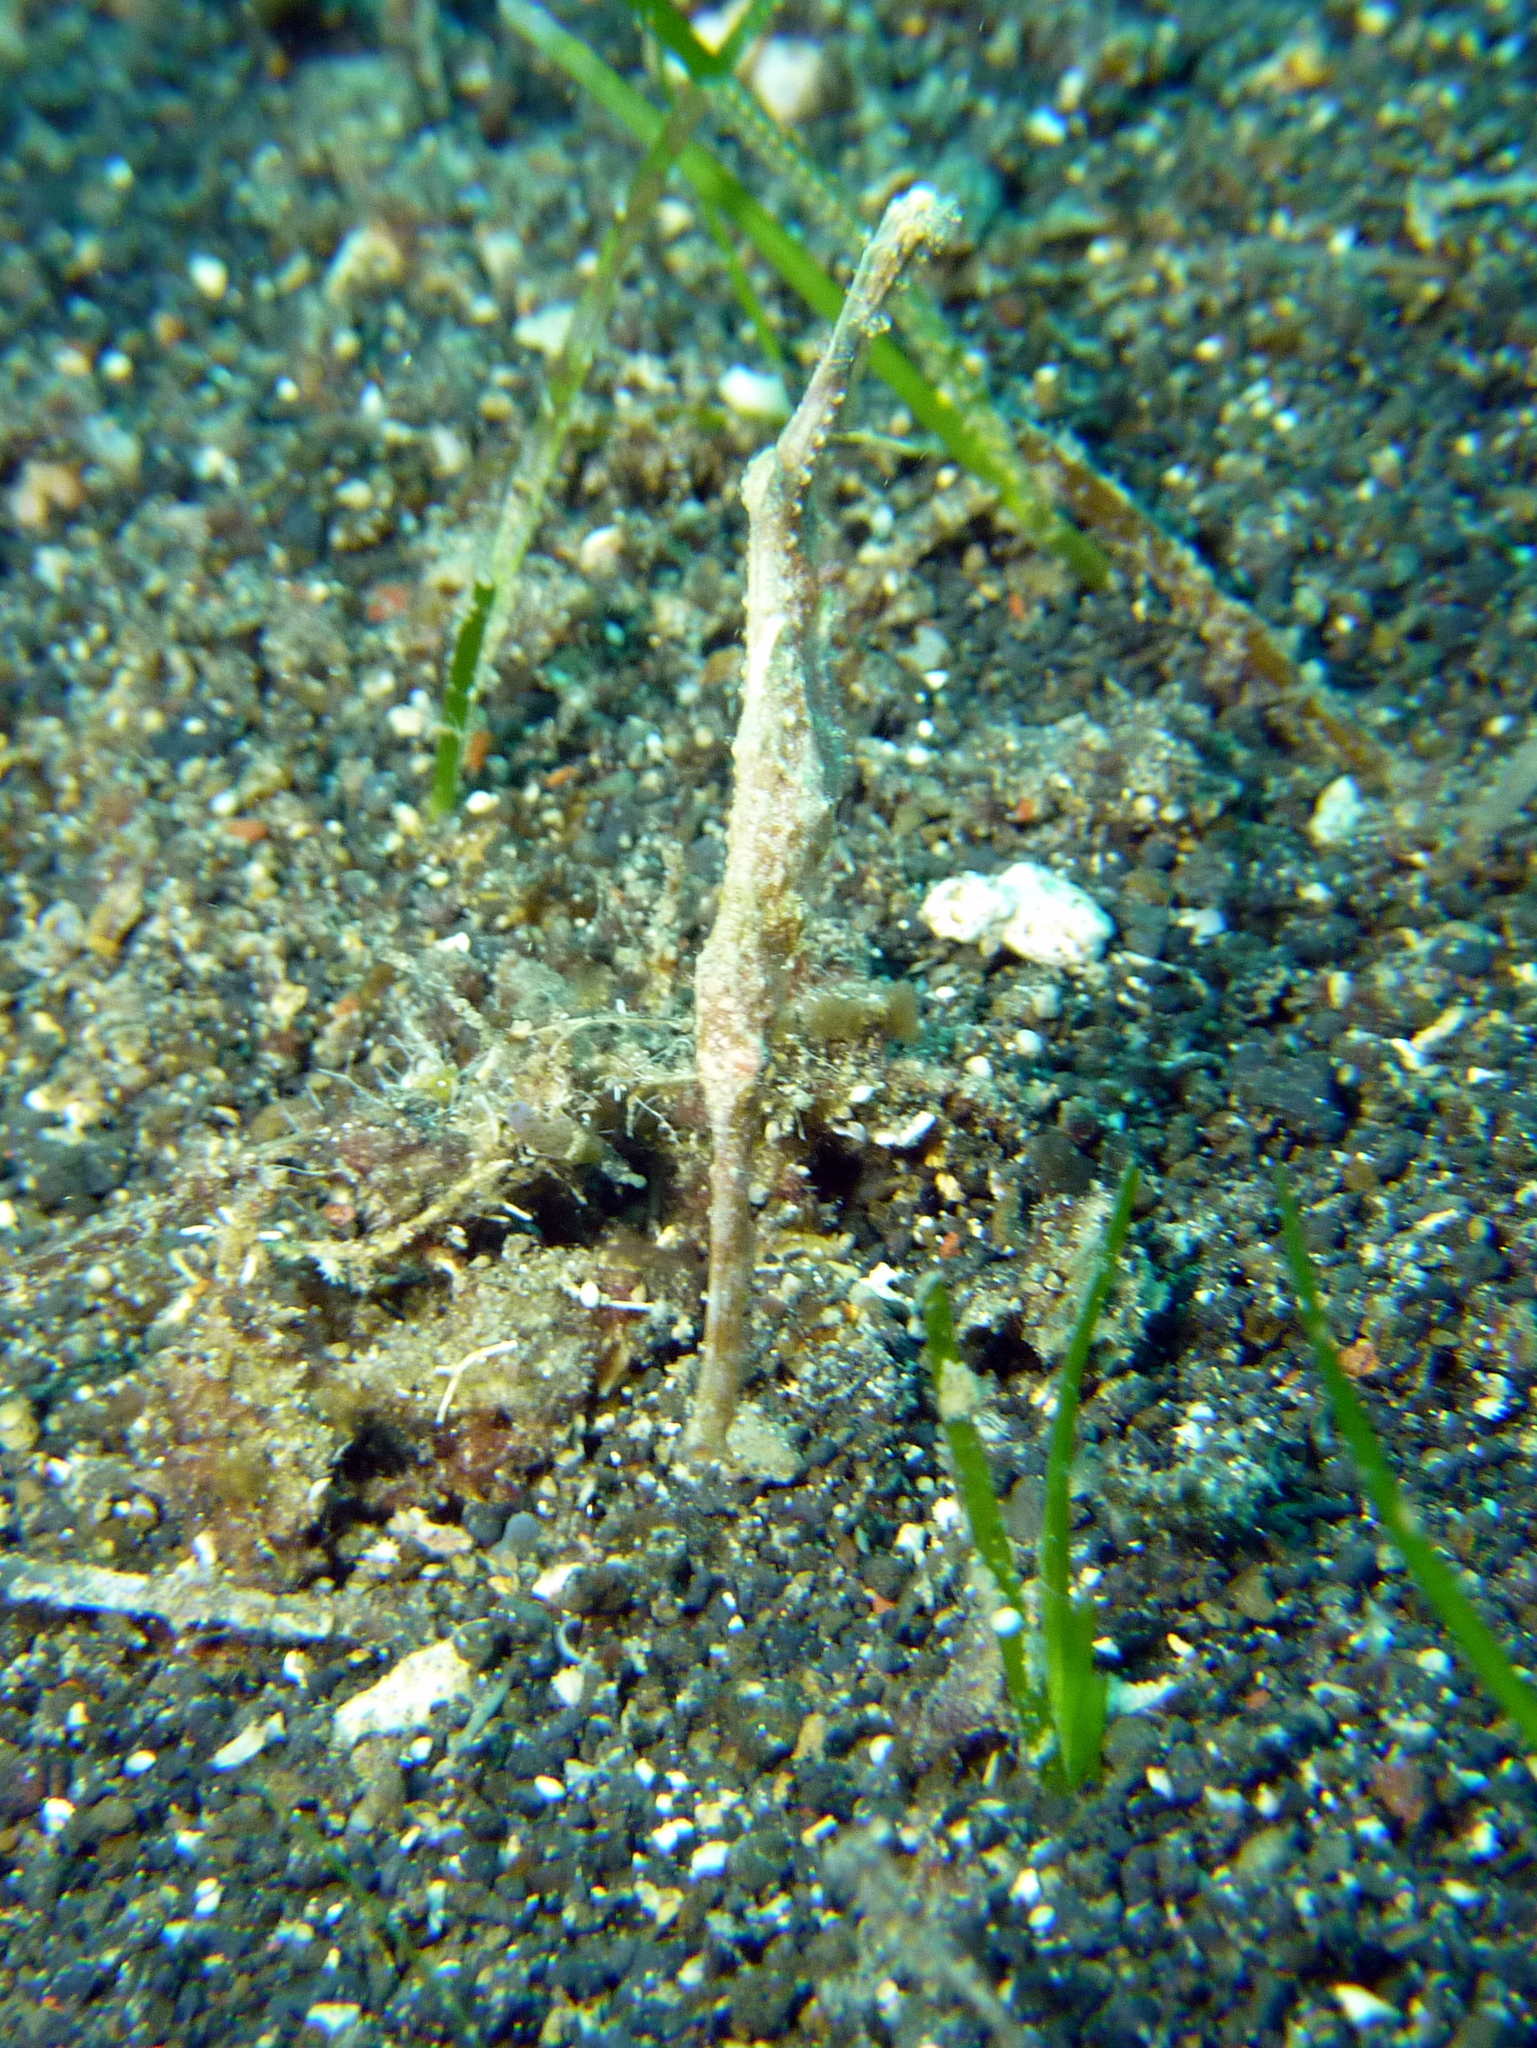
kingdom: Animalia
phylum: Chordata
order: Syngnathiformes
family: Solenostomidae
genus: Solenostomus
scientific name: Solenostomus cyanopterus
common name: Blue-finned ghost pipefish
